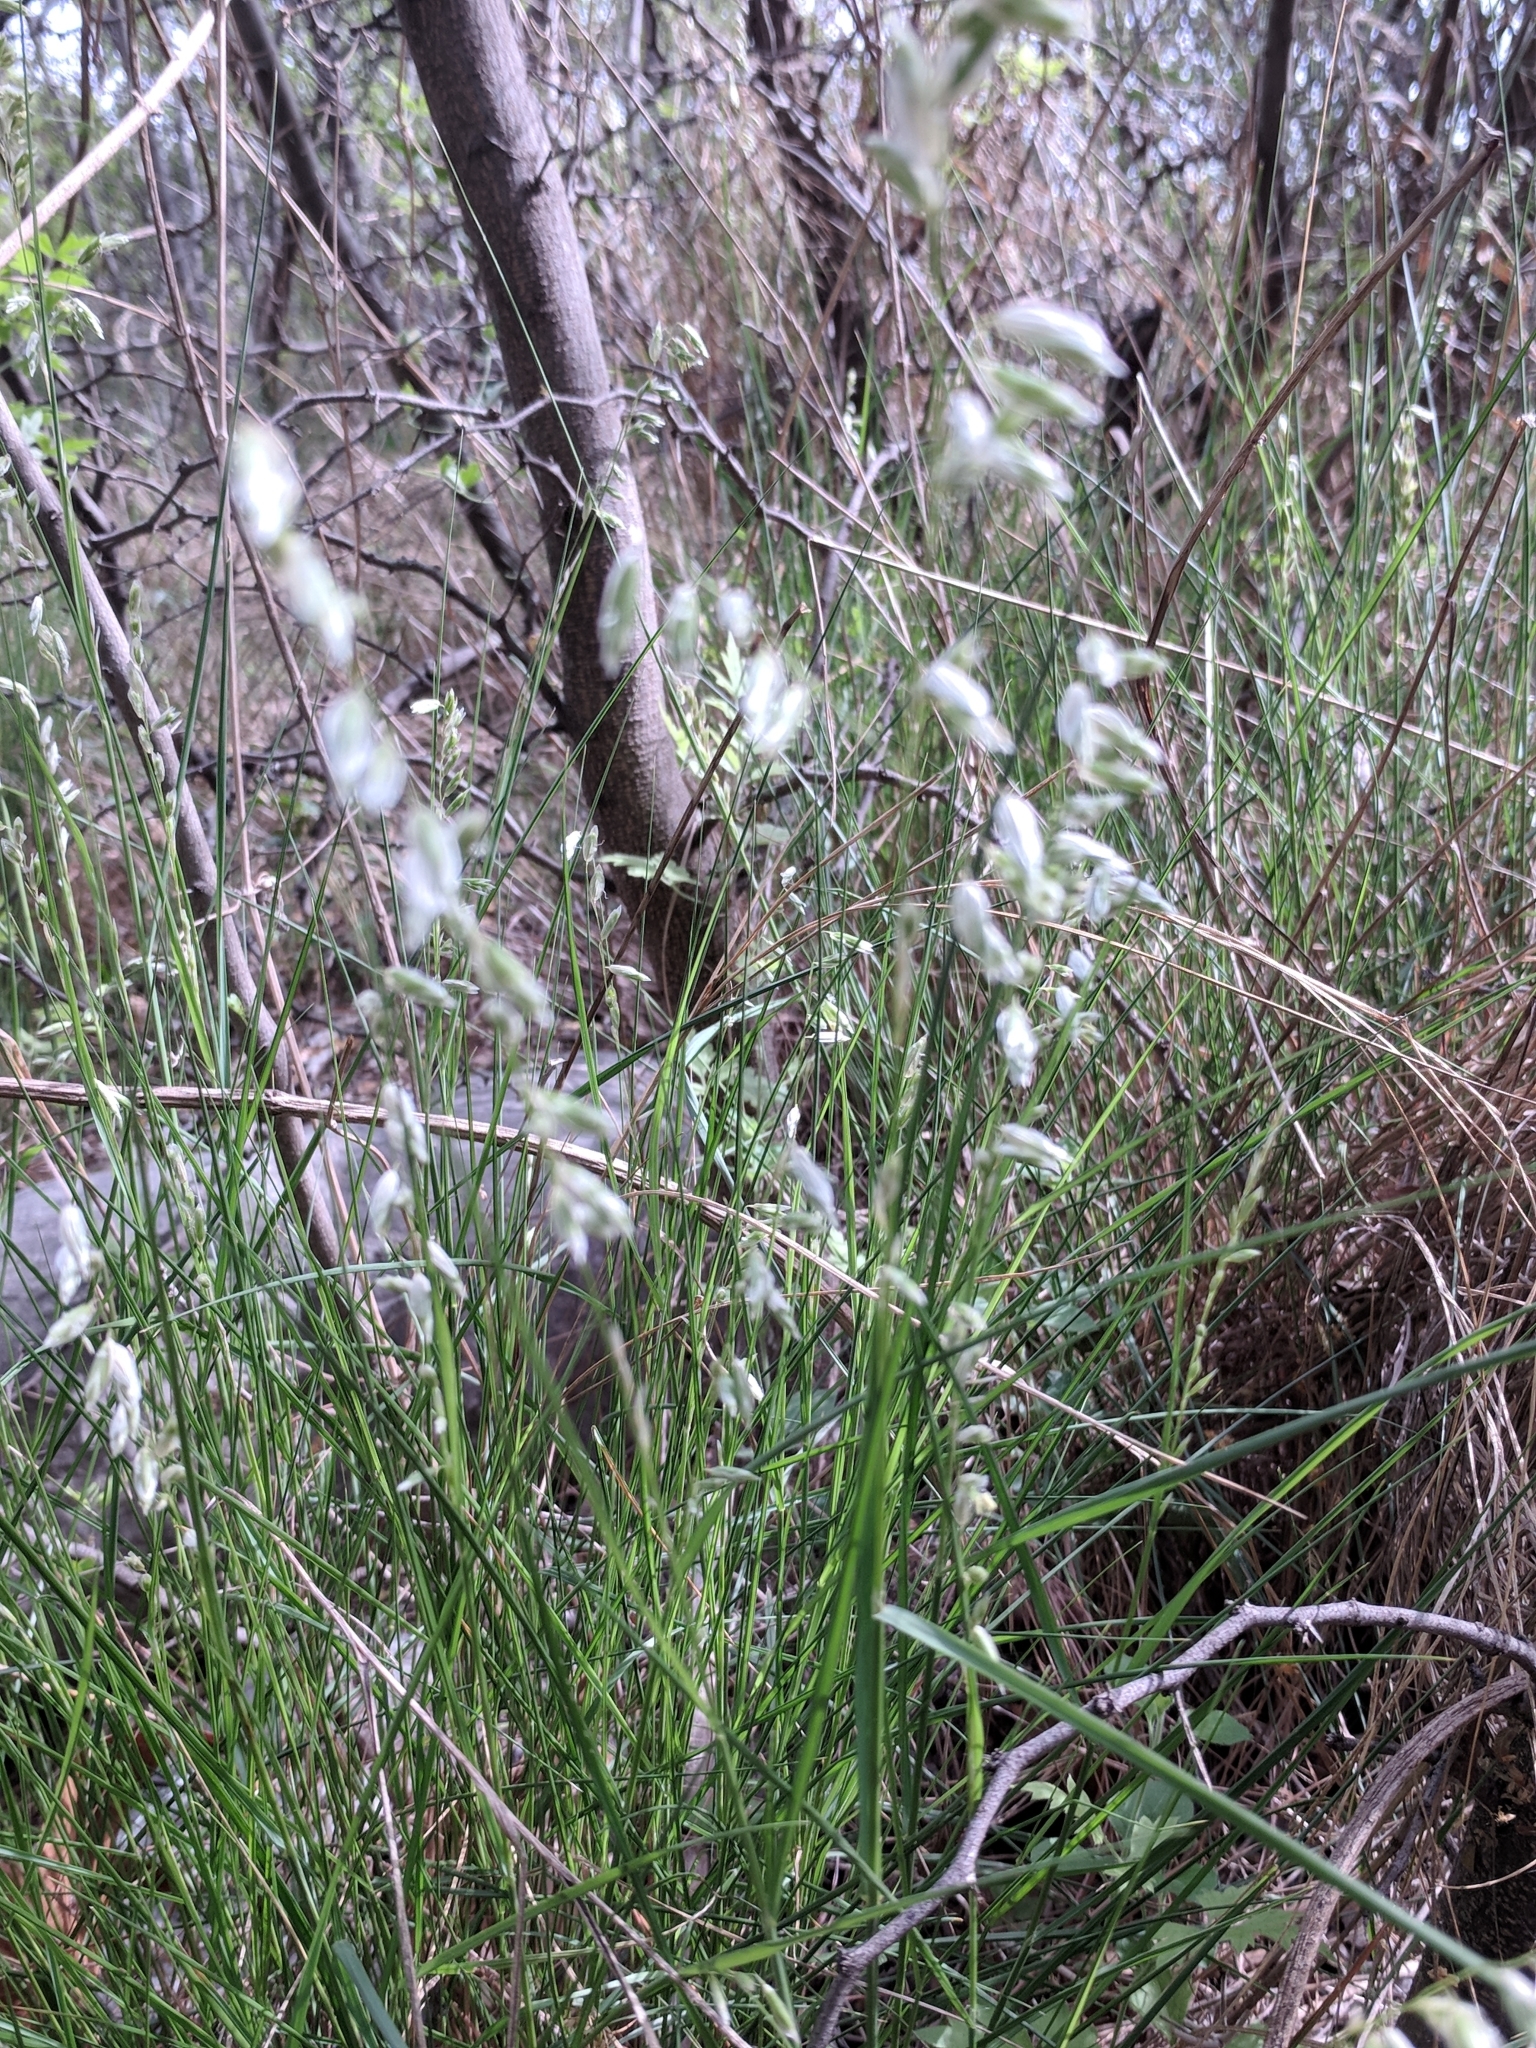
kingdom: Plantae
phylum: Tracheophyta
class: Liliopsida
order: Poales
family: Poaceae
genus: Melica
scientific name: Melica nitens
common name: Three-flower melic
